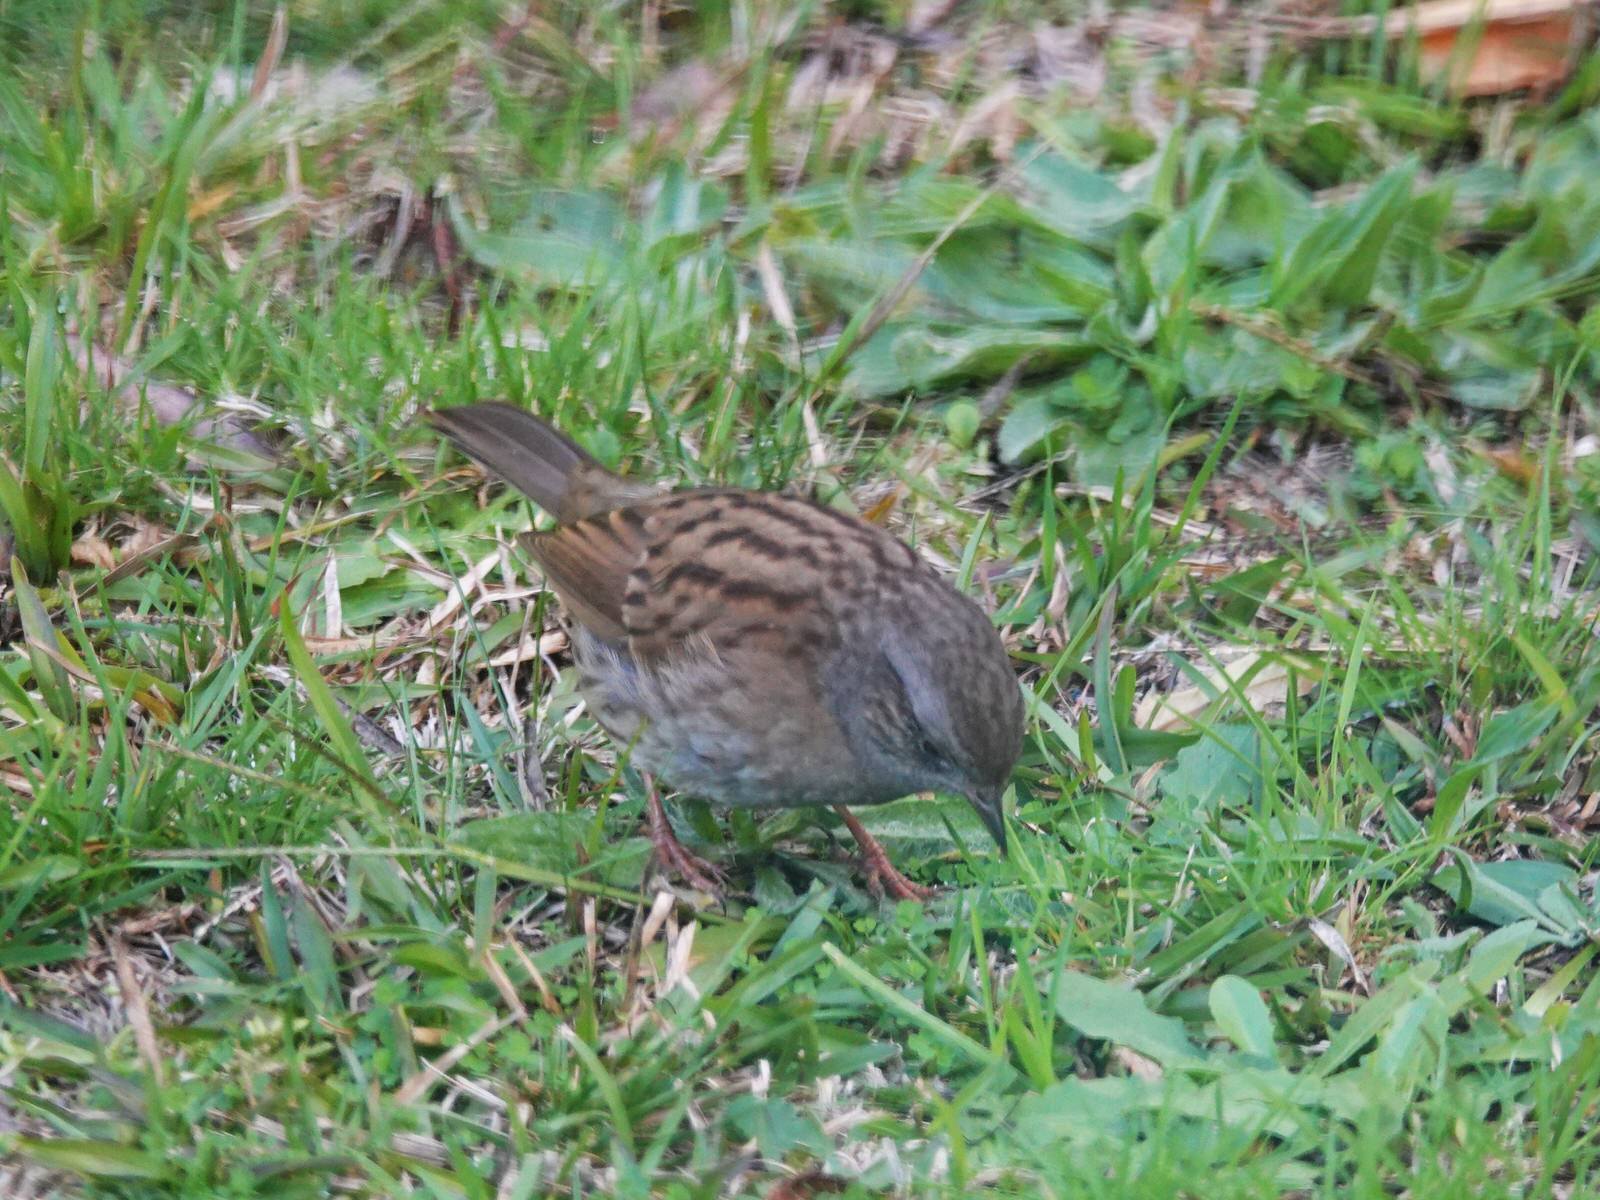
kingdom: Animalia
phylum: Chordata
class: Aves
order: Passeriformes
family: Prunellidae
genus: Prunella
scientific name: Prunella modularis
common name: Dunnock
